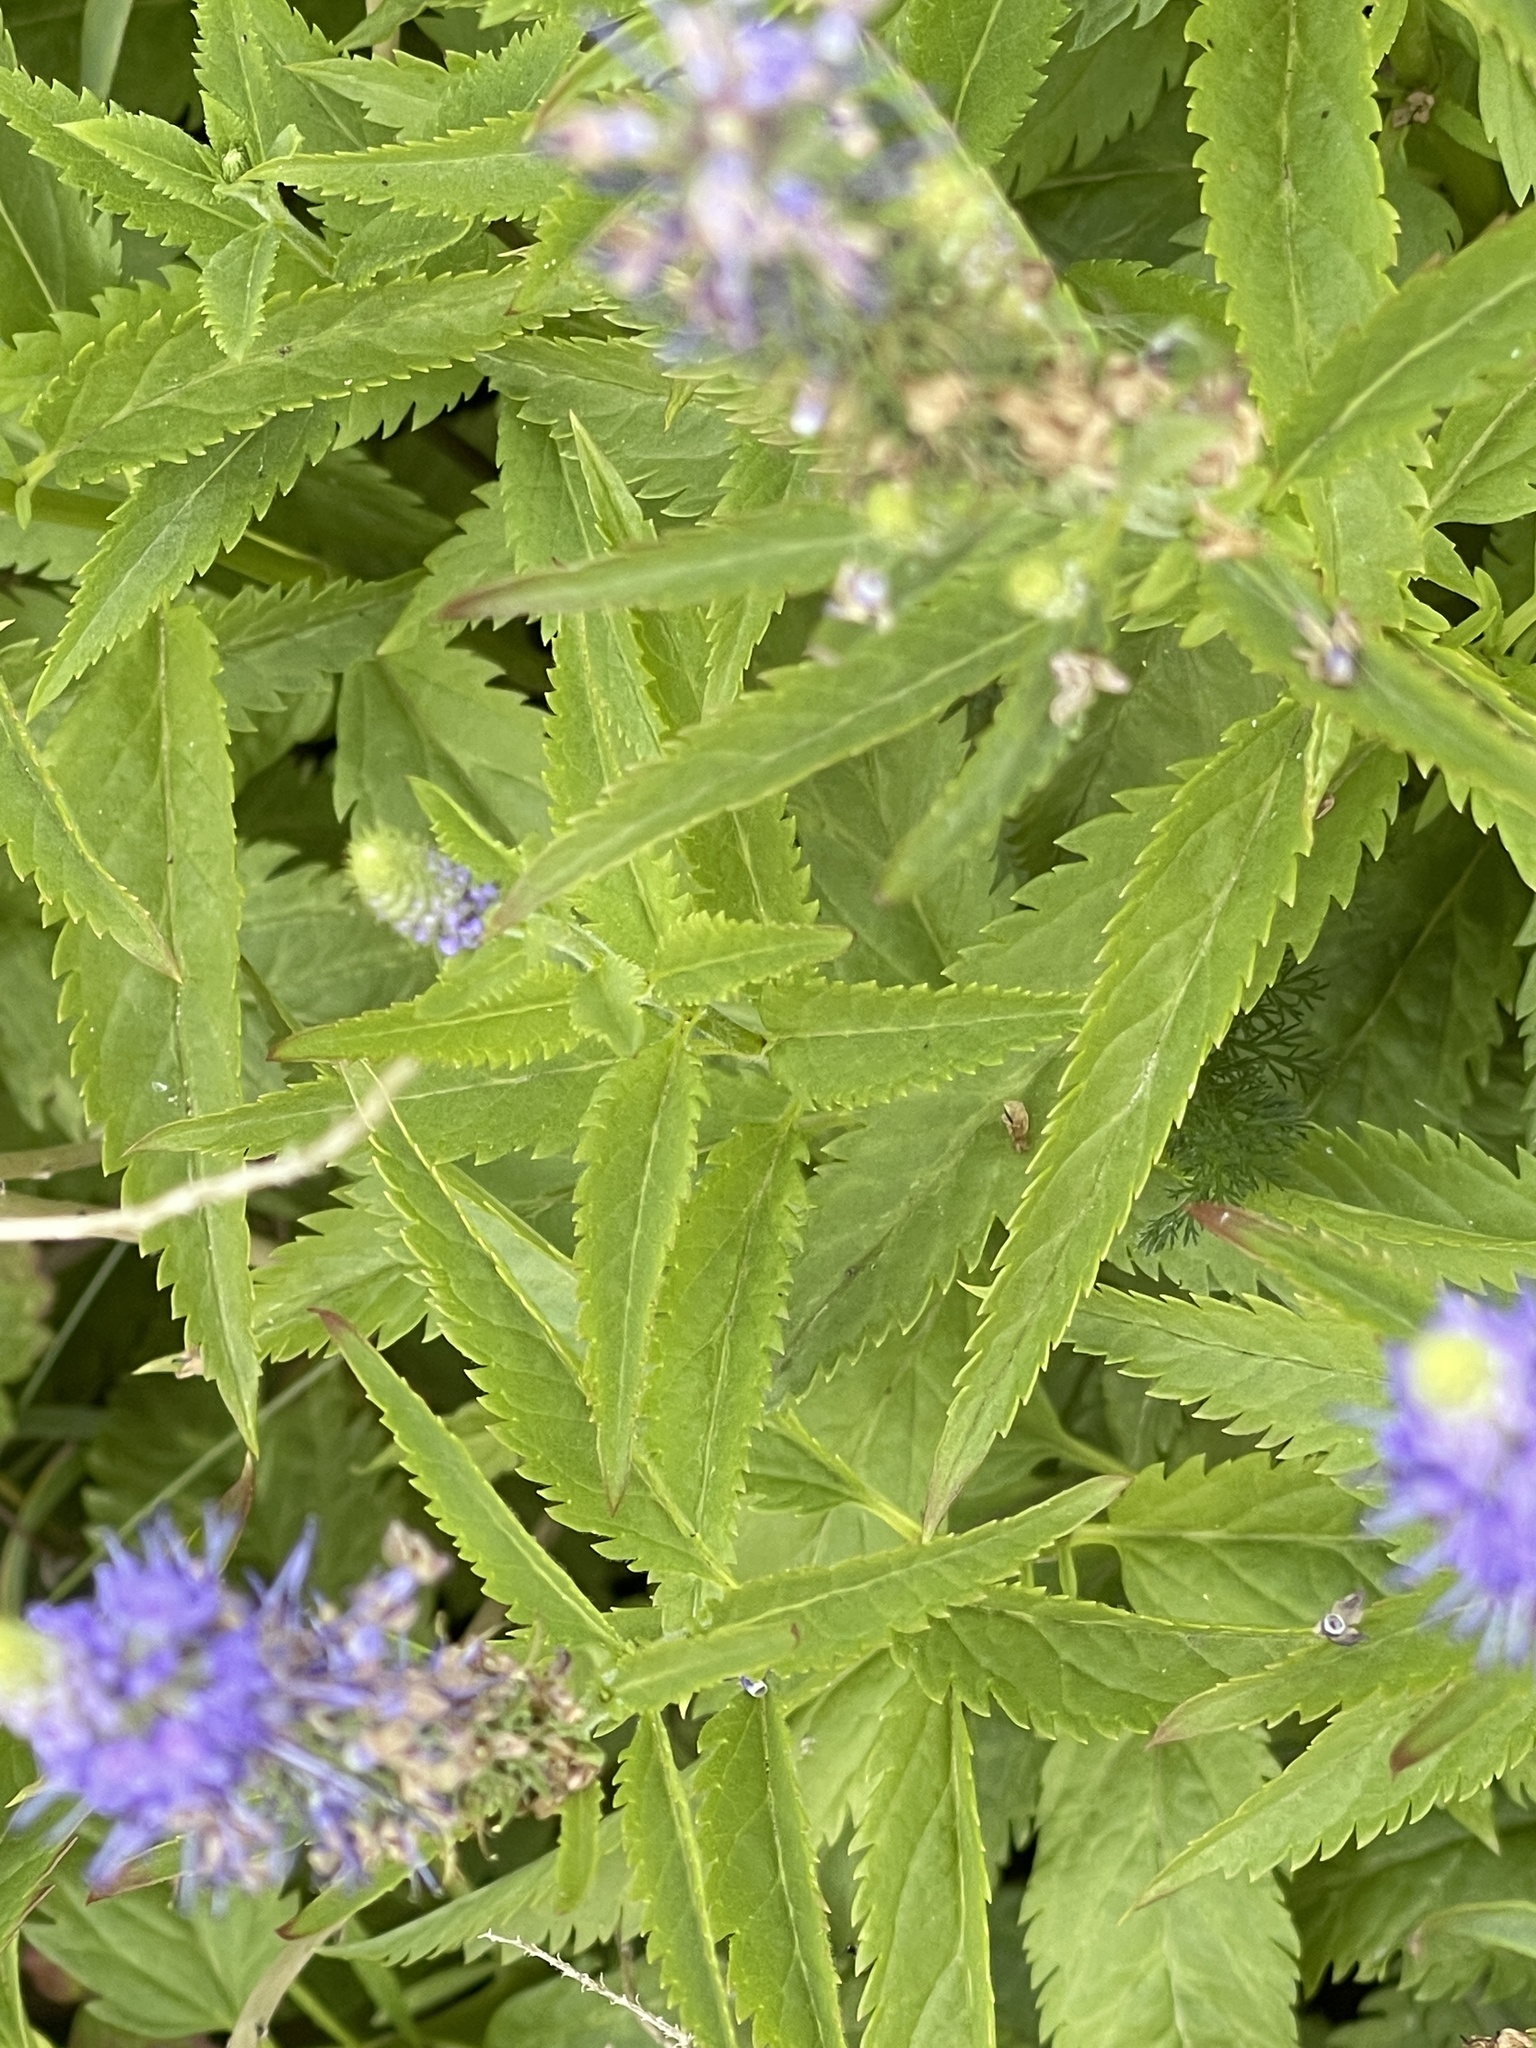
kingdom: Plantae
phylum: Tracheophyta
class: Magnoliopsida
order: Lamiales
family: Plantaginaceae
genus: Veronica
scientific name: Veronica longifolia
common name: Garden speedwell
